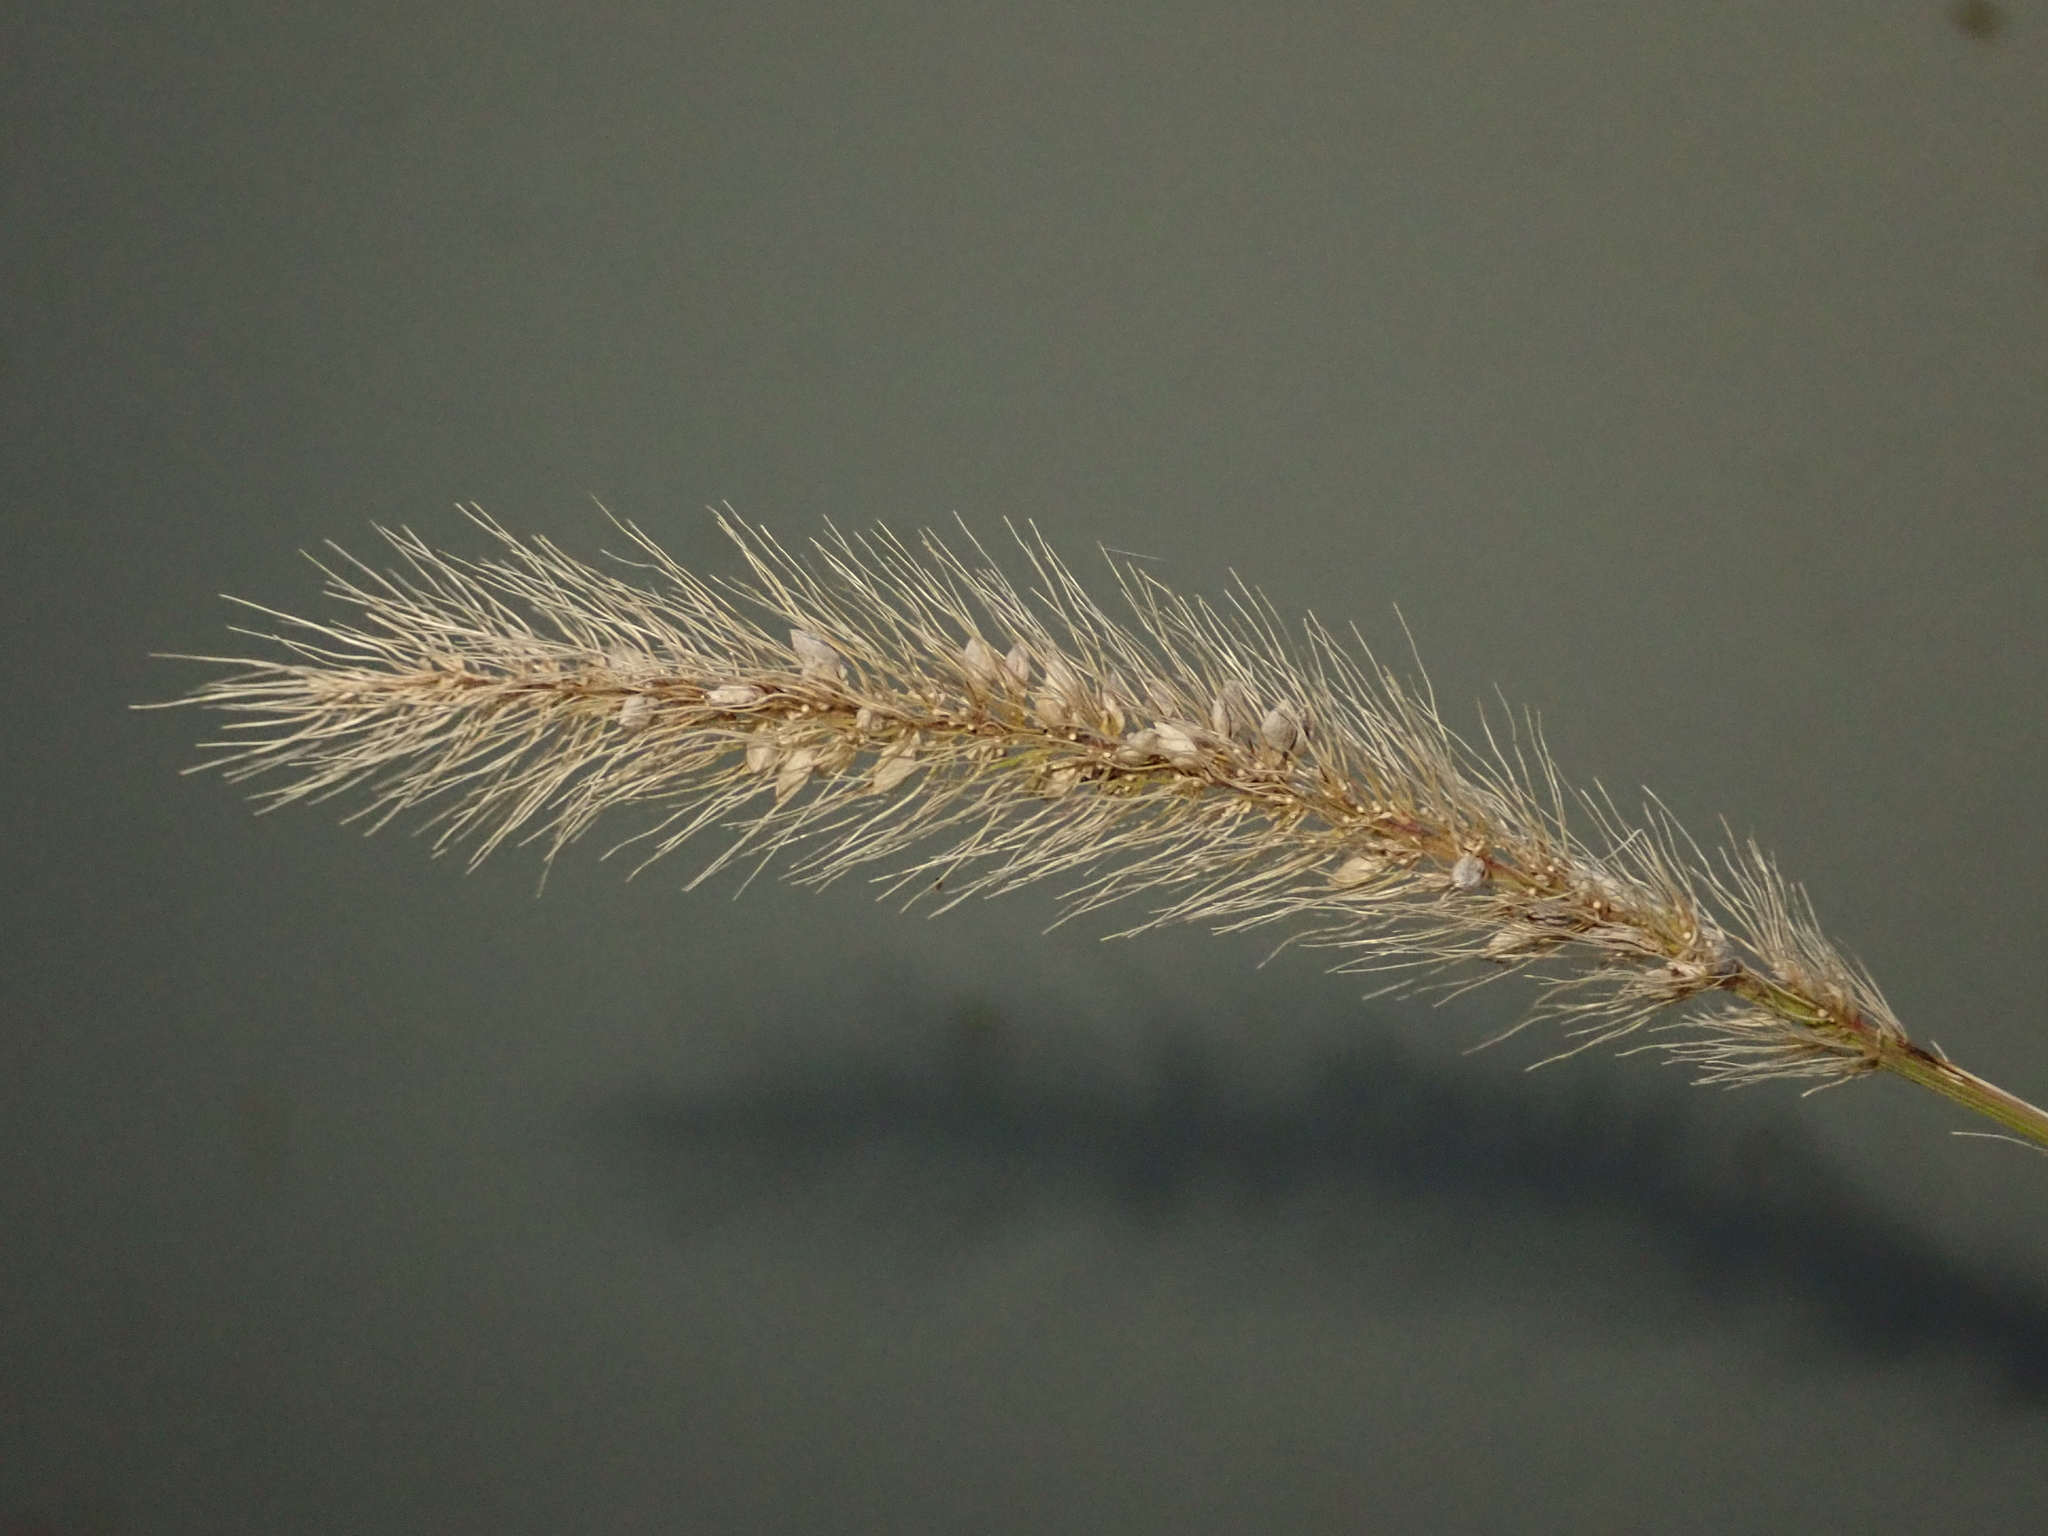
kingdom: Plantae
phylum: Tracheophyta
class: Liliopsida
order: Poales
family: Poaceae
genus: Setaria
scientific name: Setaria viridis
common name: Green bristlegrass
